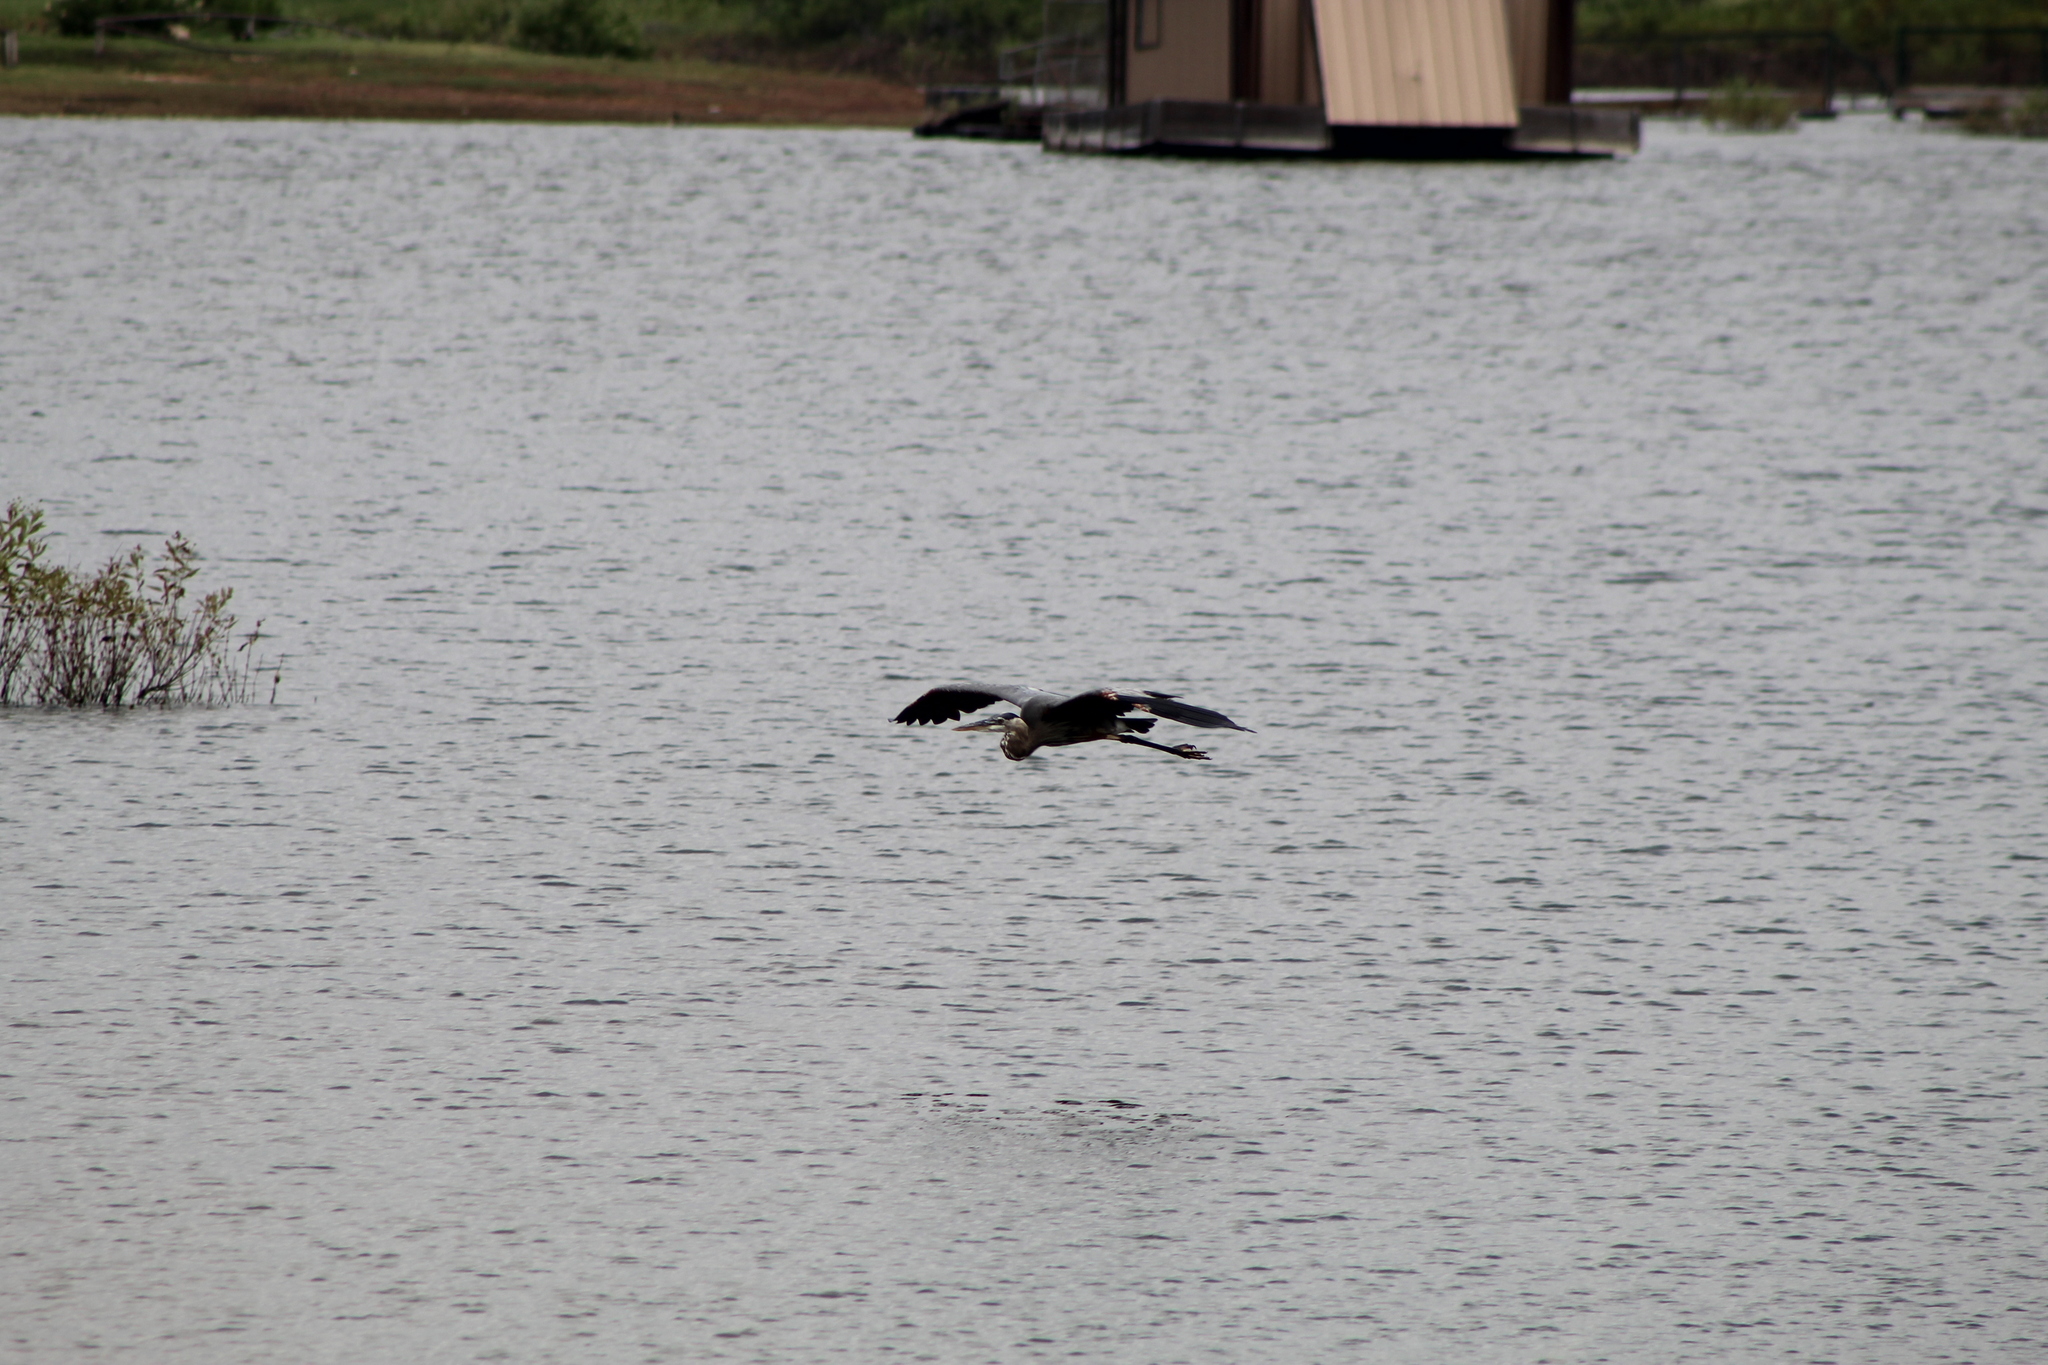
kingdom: Animalia
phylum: Chordata
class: Aves
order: Pelecaniformes
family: Ardeidae
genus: Ardea
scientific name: Ardea herodias
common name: Great blue heron
